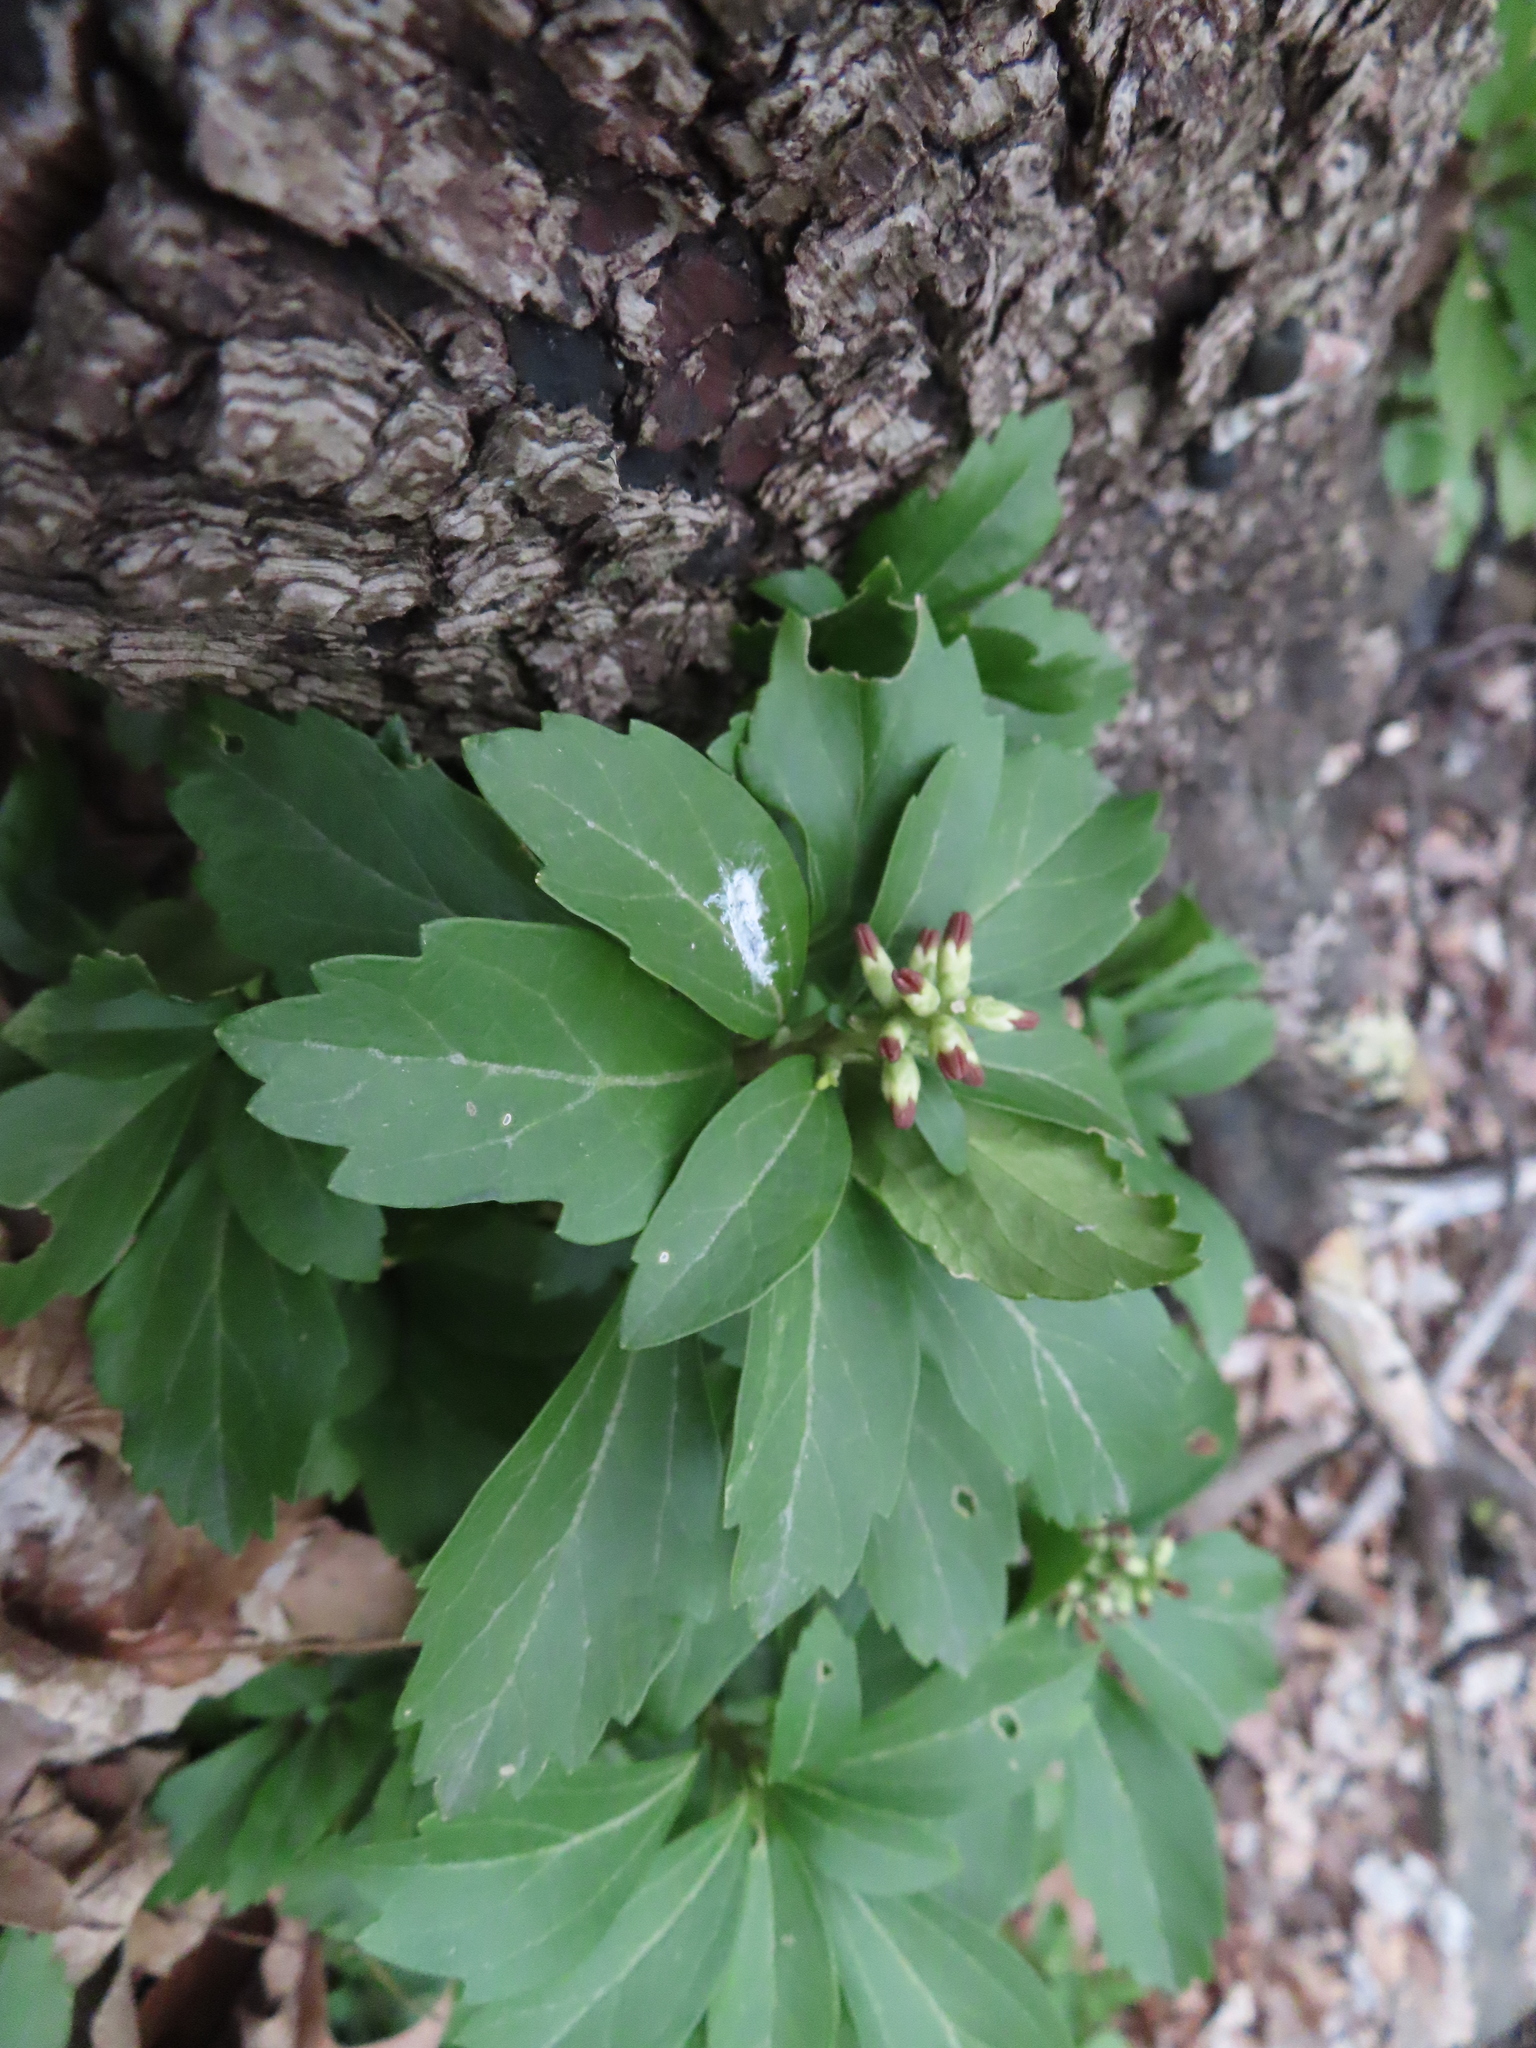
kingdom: Plantae
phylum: Tracheophyta
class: Magnoliopsida
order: Buxales
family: Buxaceae
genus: Pachysandra
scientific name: Pachysandra terminalis
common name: Japanese pachysandra
